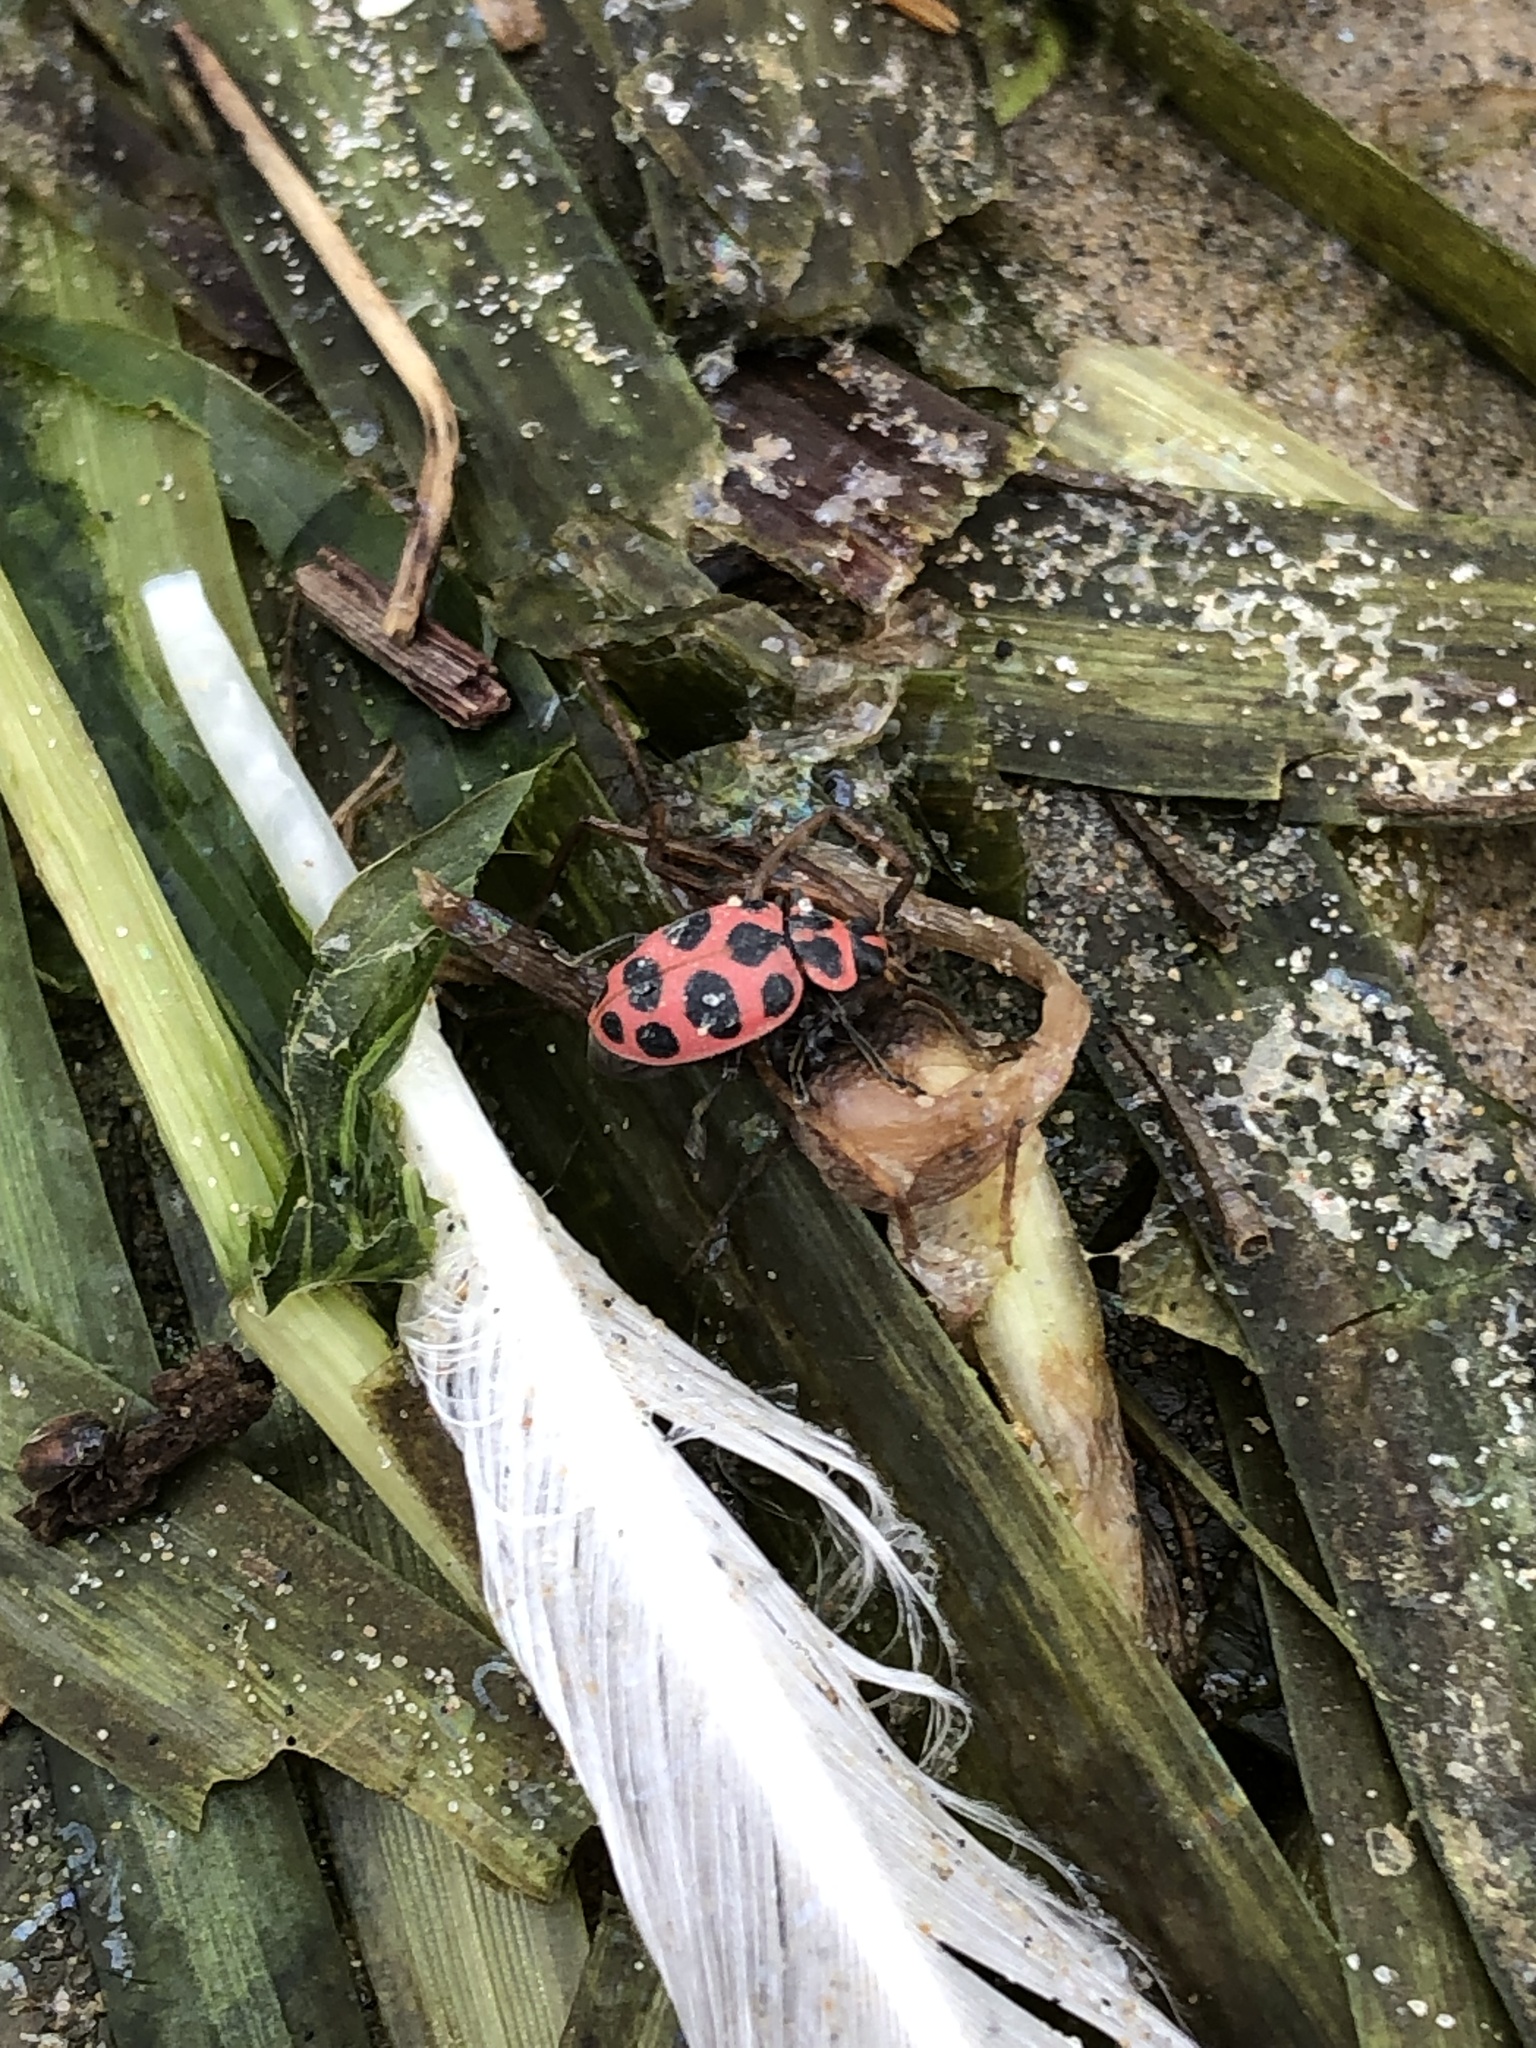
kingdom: Animalia
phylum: Arthropoda
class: Insecta
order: Coleoptera
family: Coccinellidae
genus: Coleomegilla
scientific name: Coleomegilla maculata
